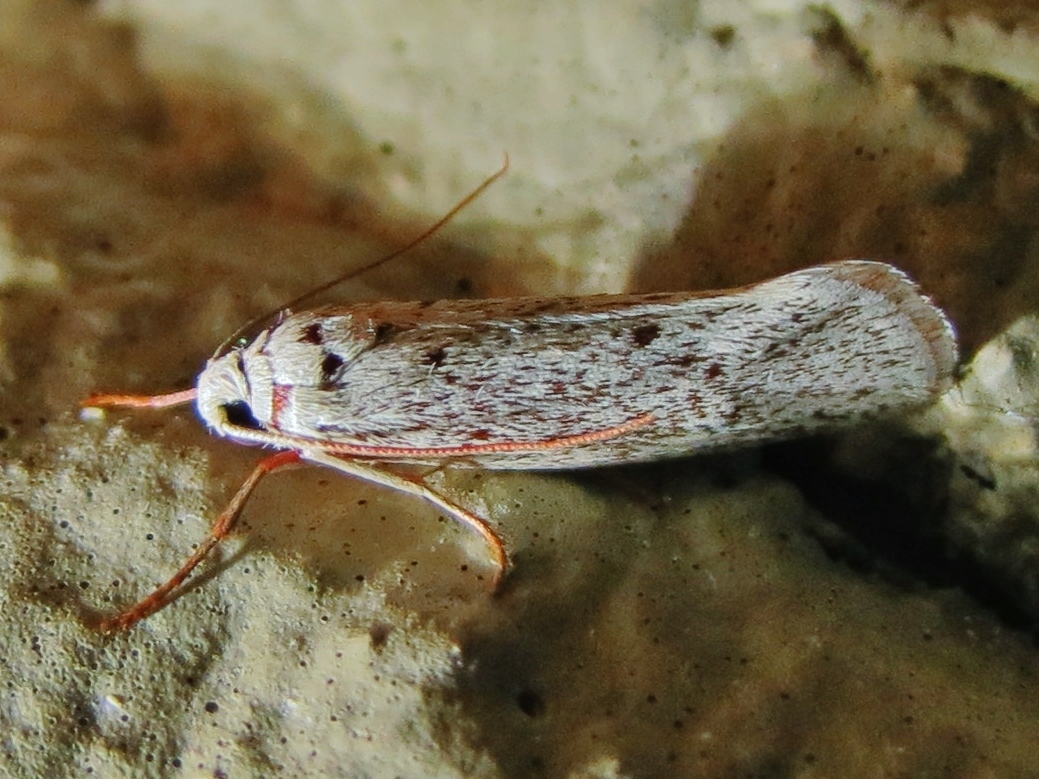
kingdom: Animalia
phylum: Arthropoda
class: Insecta
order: Lepidoptera
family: Lacturidae
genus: Lactura
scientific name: Lactura
